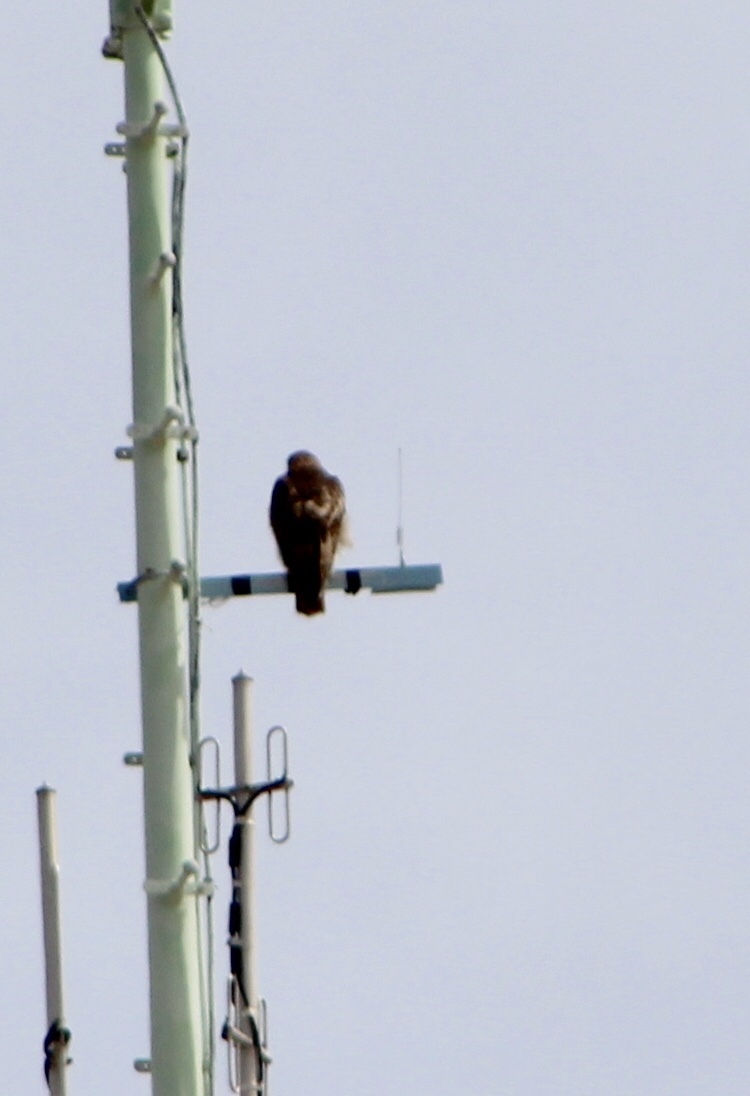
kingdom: Animalia
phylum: Chordata
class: Aves
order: Accipitriformes
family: Accipitridae
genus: Buteo
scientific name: Buteo jamaicensis
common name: Red-tailed hawk
